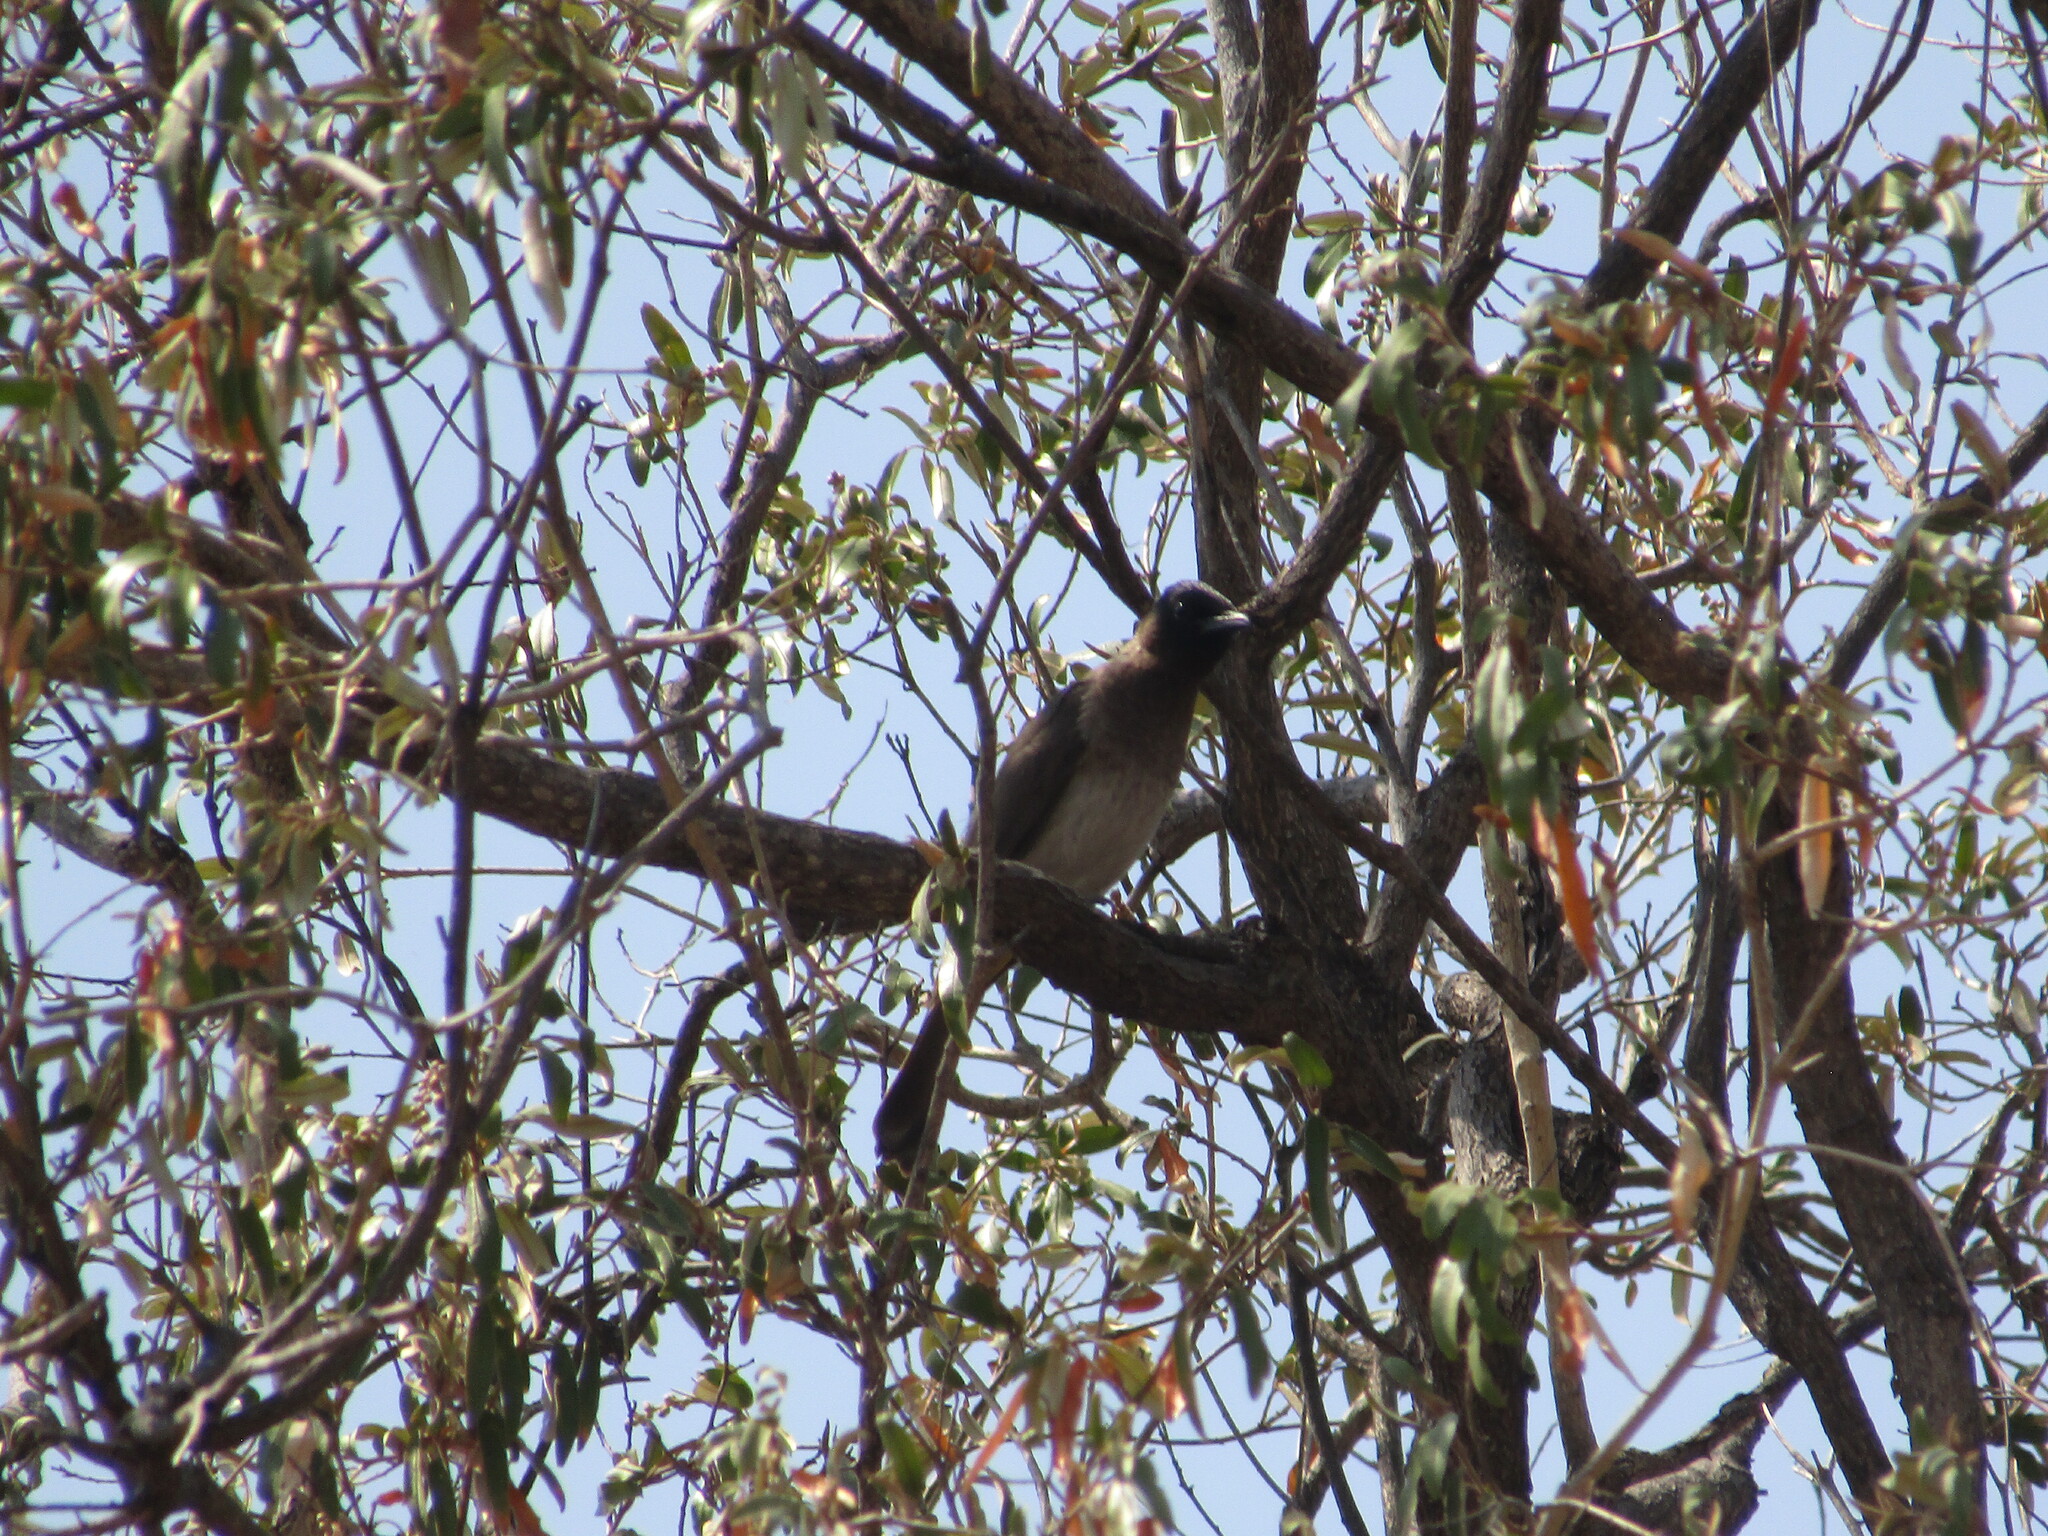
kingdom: Animalia
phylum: Chordata
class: Aves
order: Passeriformes
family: Pycnonotidae
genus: Pycnonotus
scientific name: Pycnonotus barbatus
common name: Common bulbul
